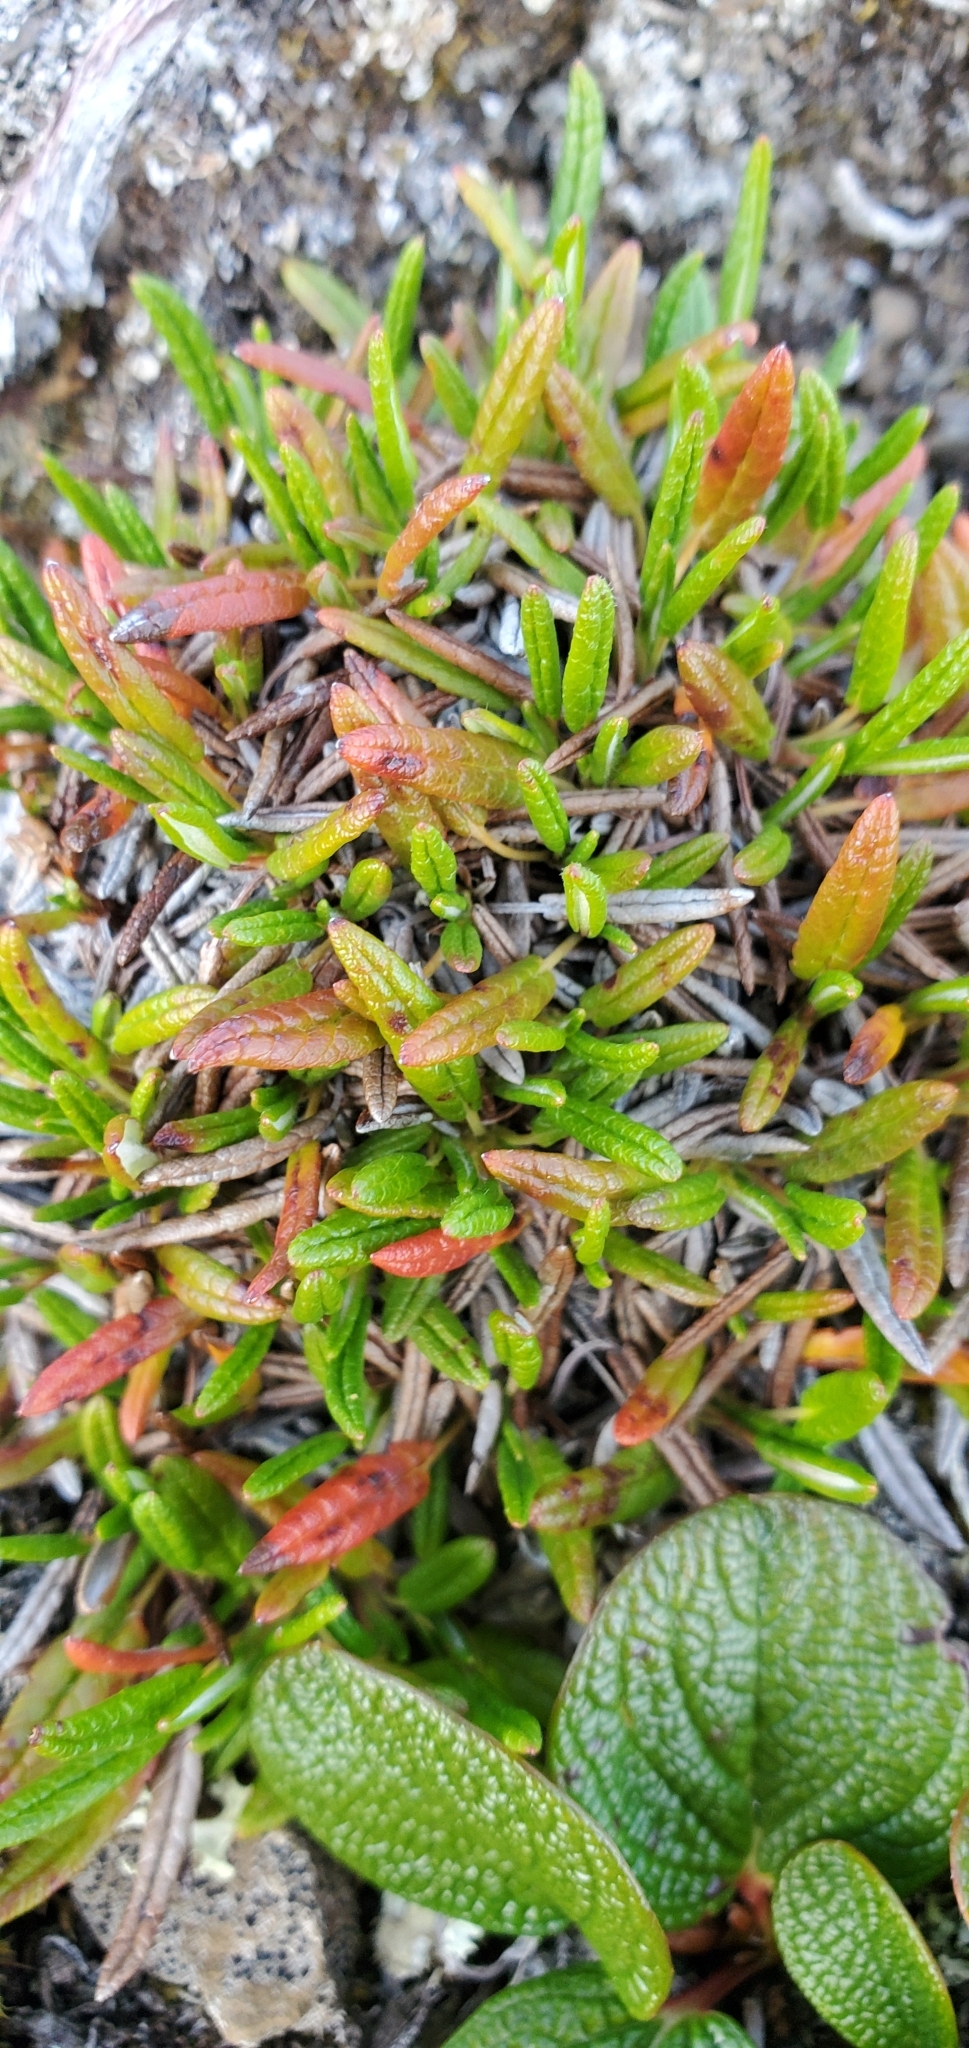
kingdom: Plantae
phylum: Tracheophyta
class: Magnoliopsida
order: Rosales
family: Rosaceae
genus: Dryas
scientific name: Dryas integrifolia
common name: Entire-leaved mountain avens
